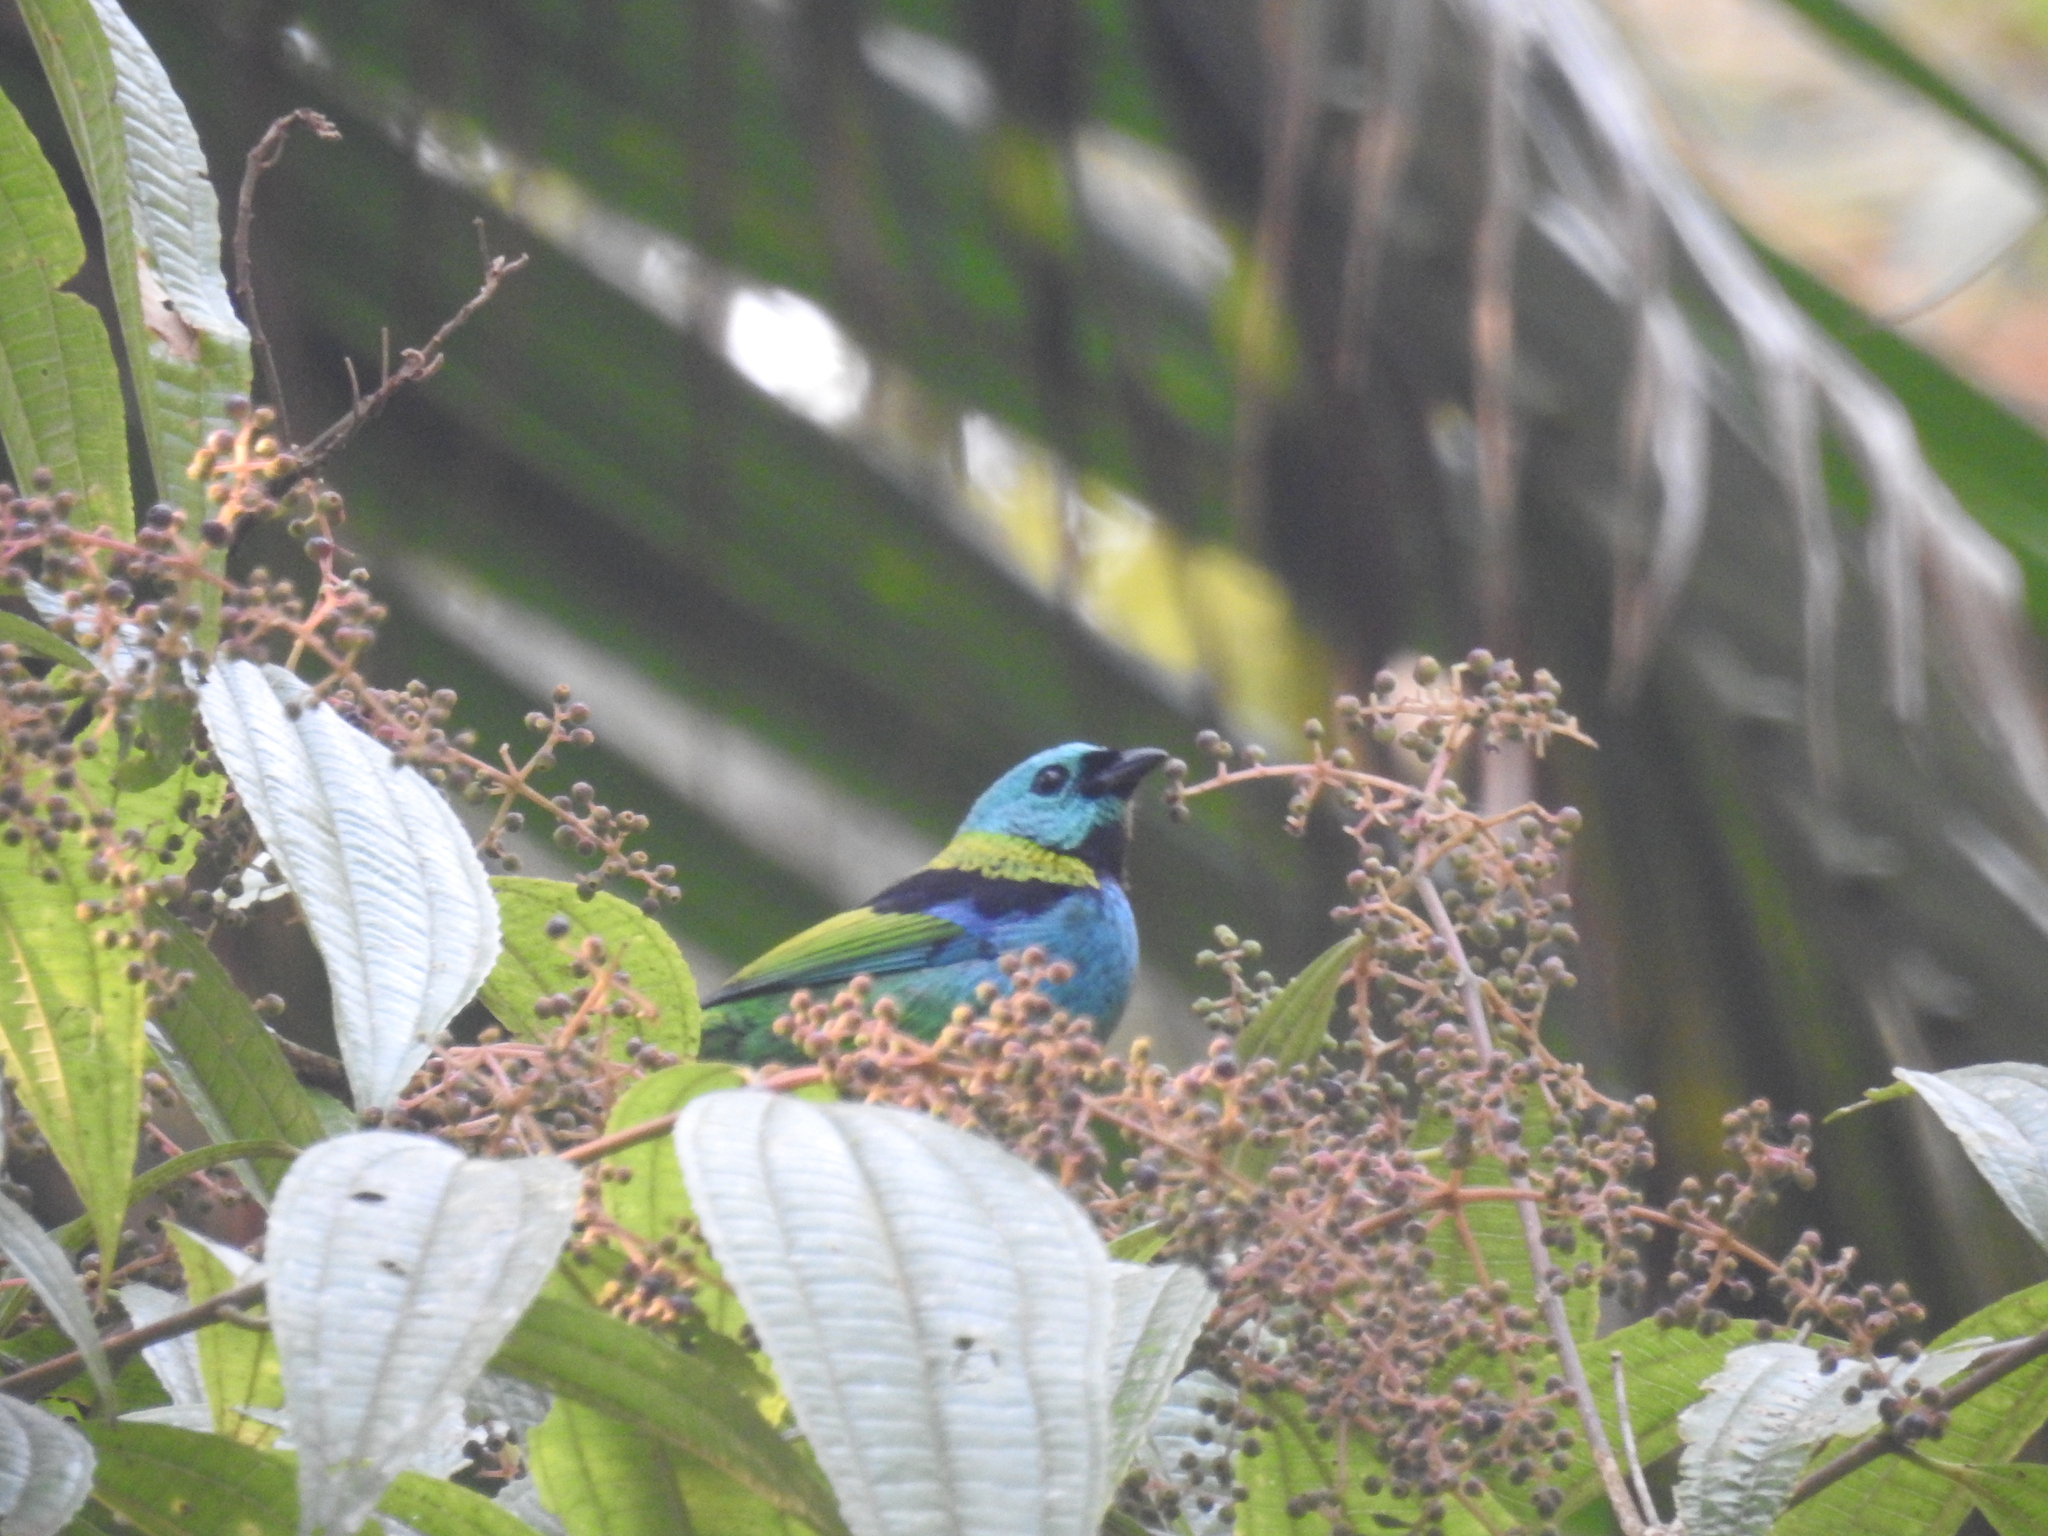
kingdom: Animalia
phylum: Chordata
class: Aves
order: Passeriformes
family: Thraupidae
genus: Tangara
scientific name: Tangara seledon
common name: Green-headed tanager
